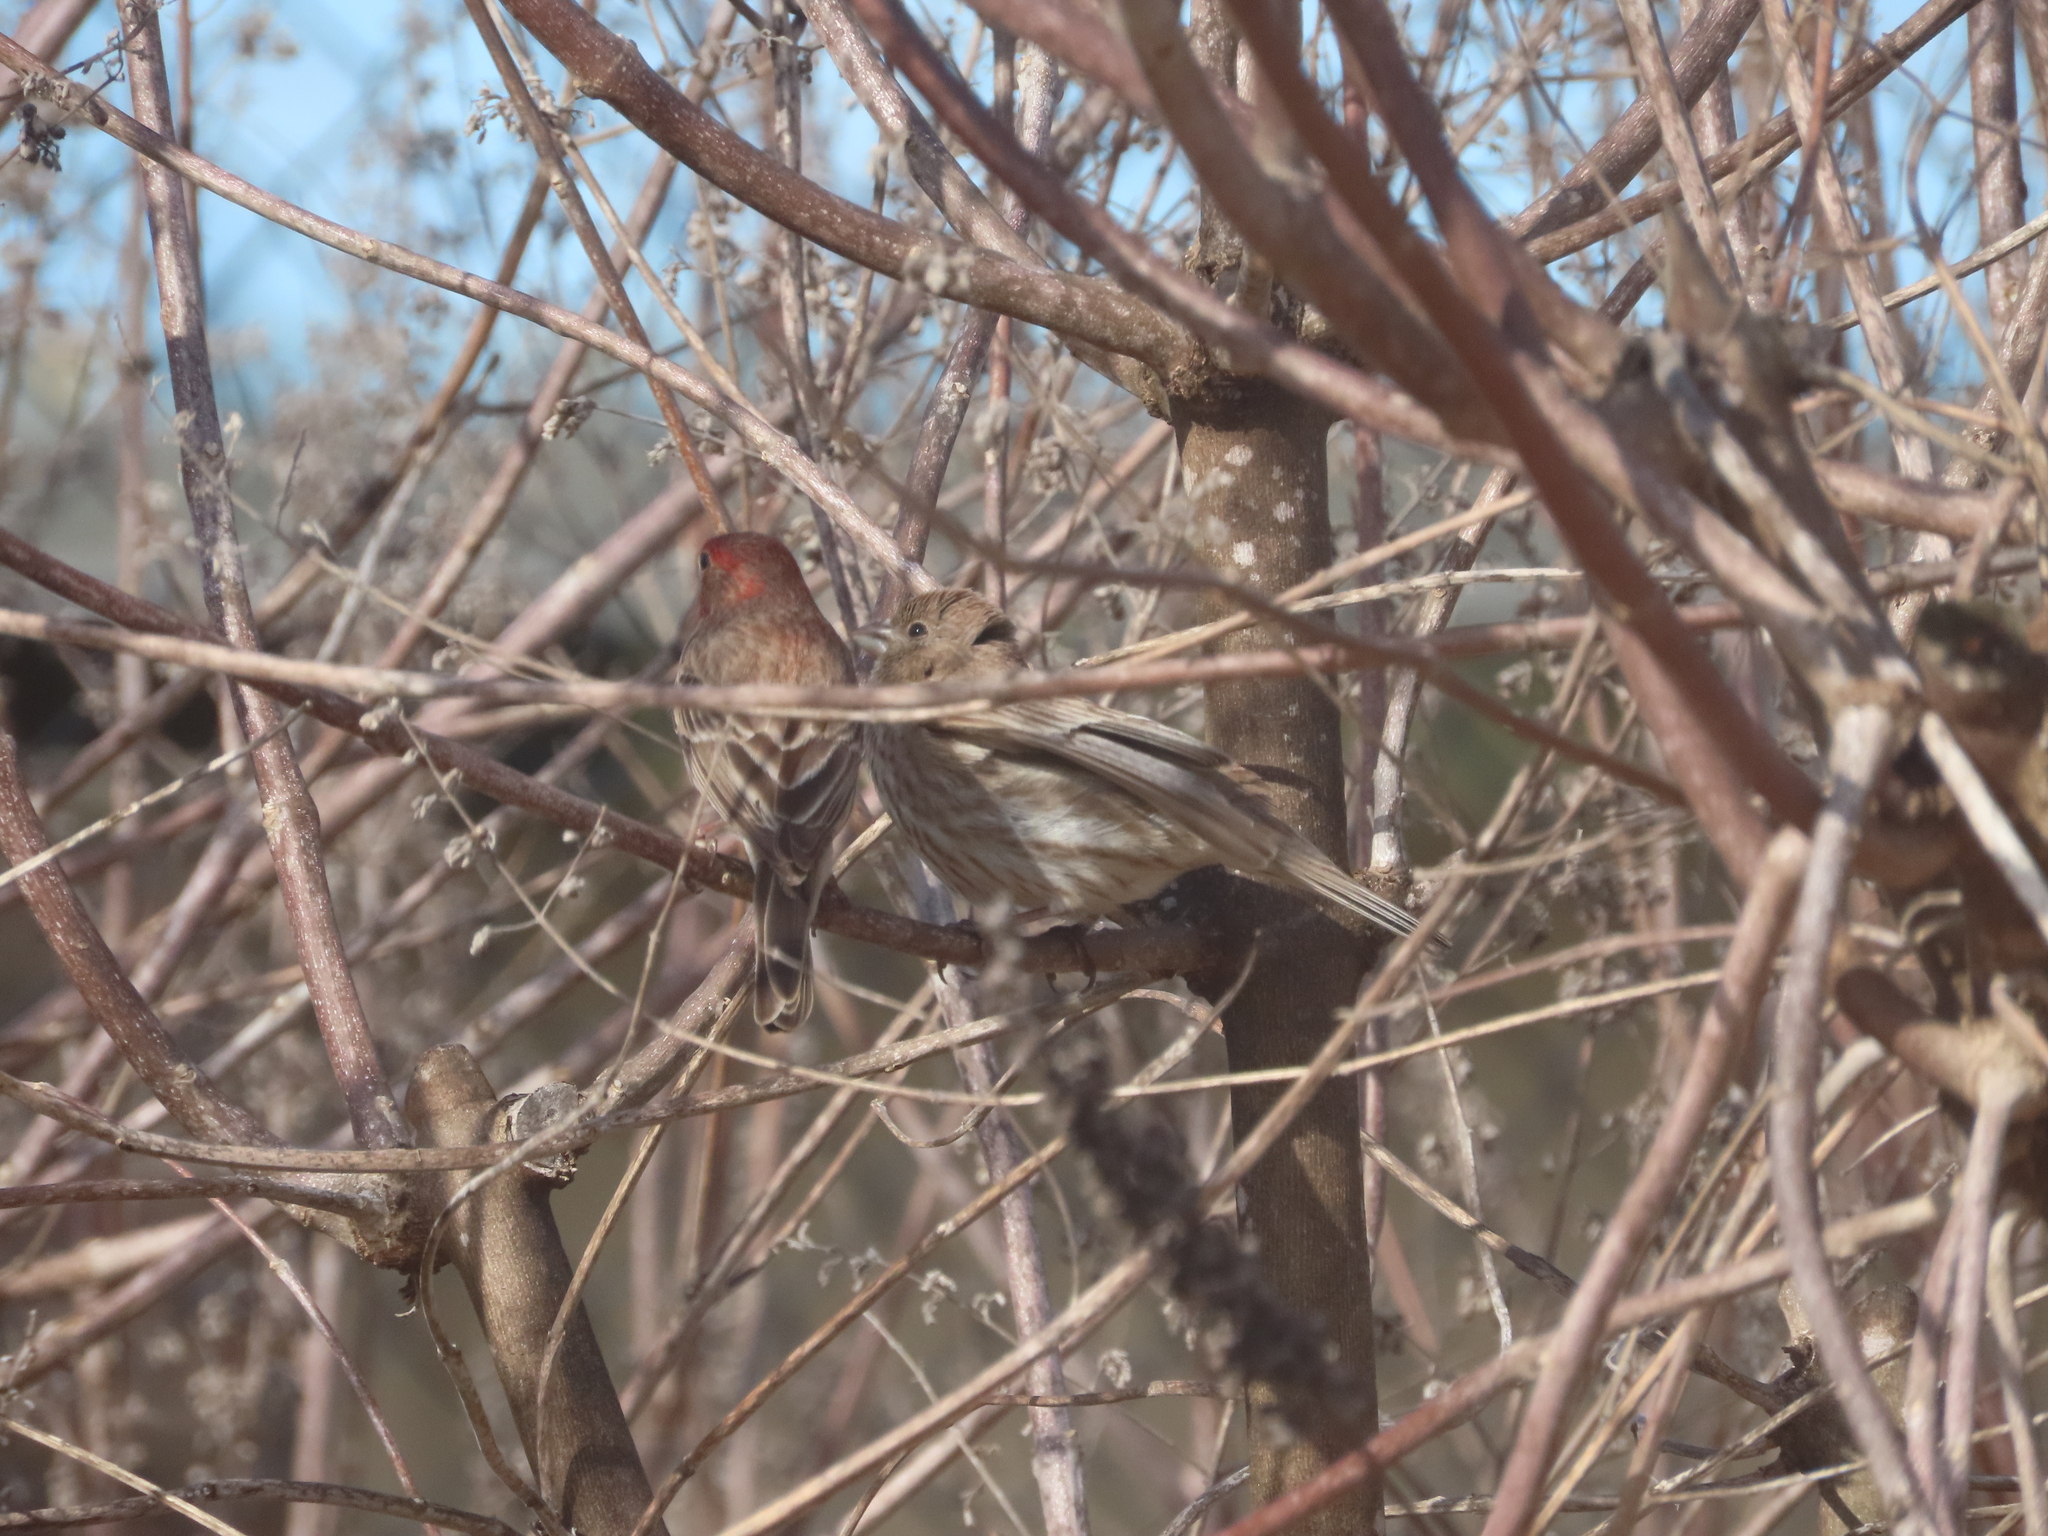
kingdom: Animalia
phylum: Chordata
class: Aves
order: Passeriformes
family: Fringillidae
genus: Haemorhous
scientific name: Haemorhous mexicanus
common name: House finch
